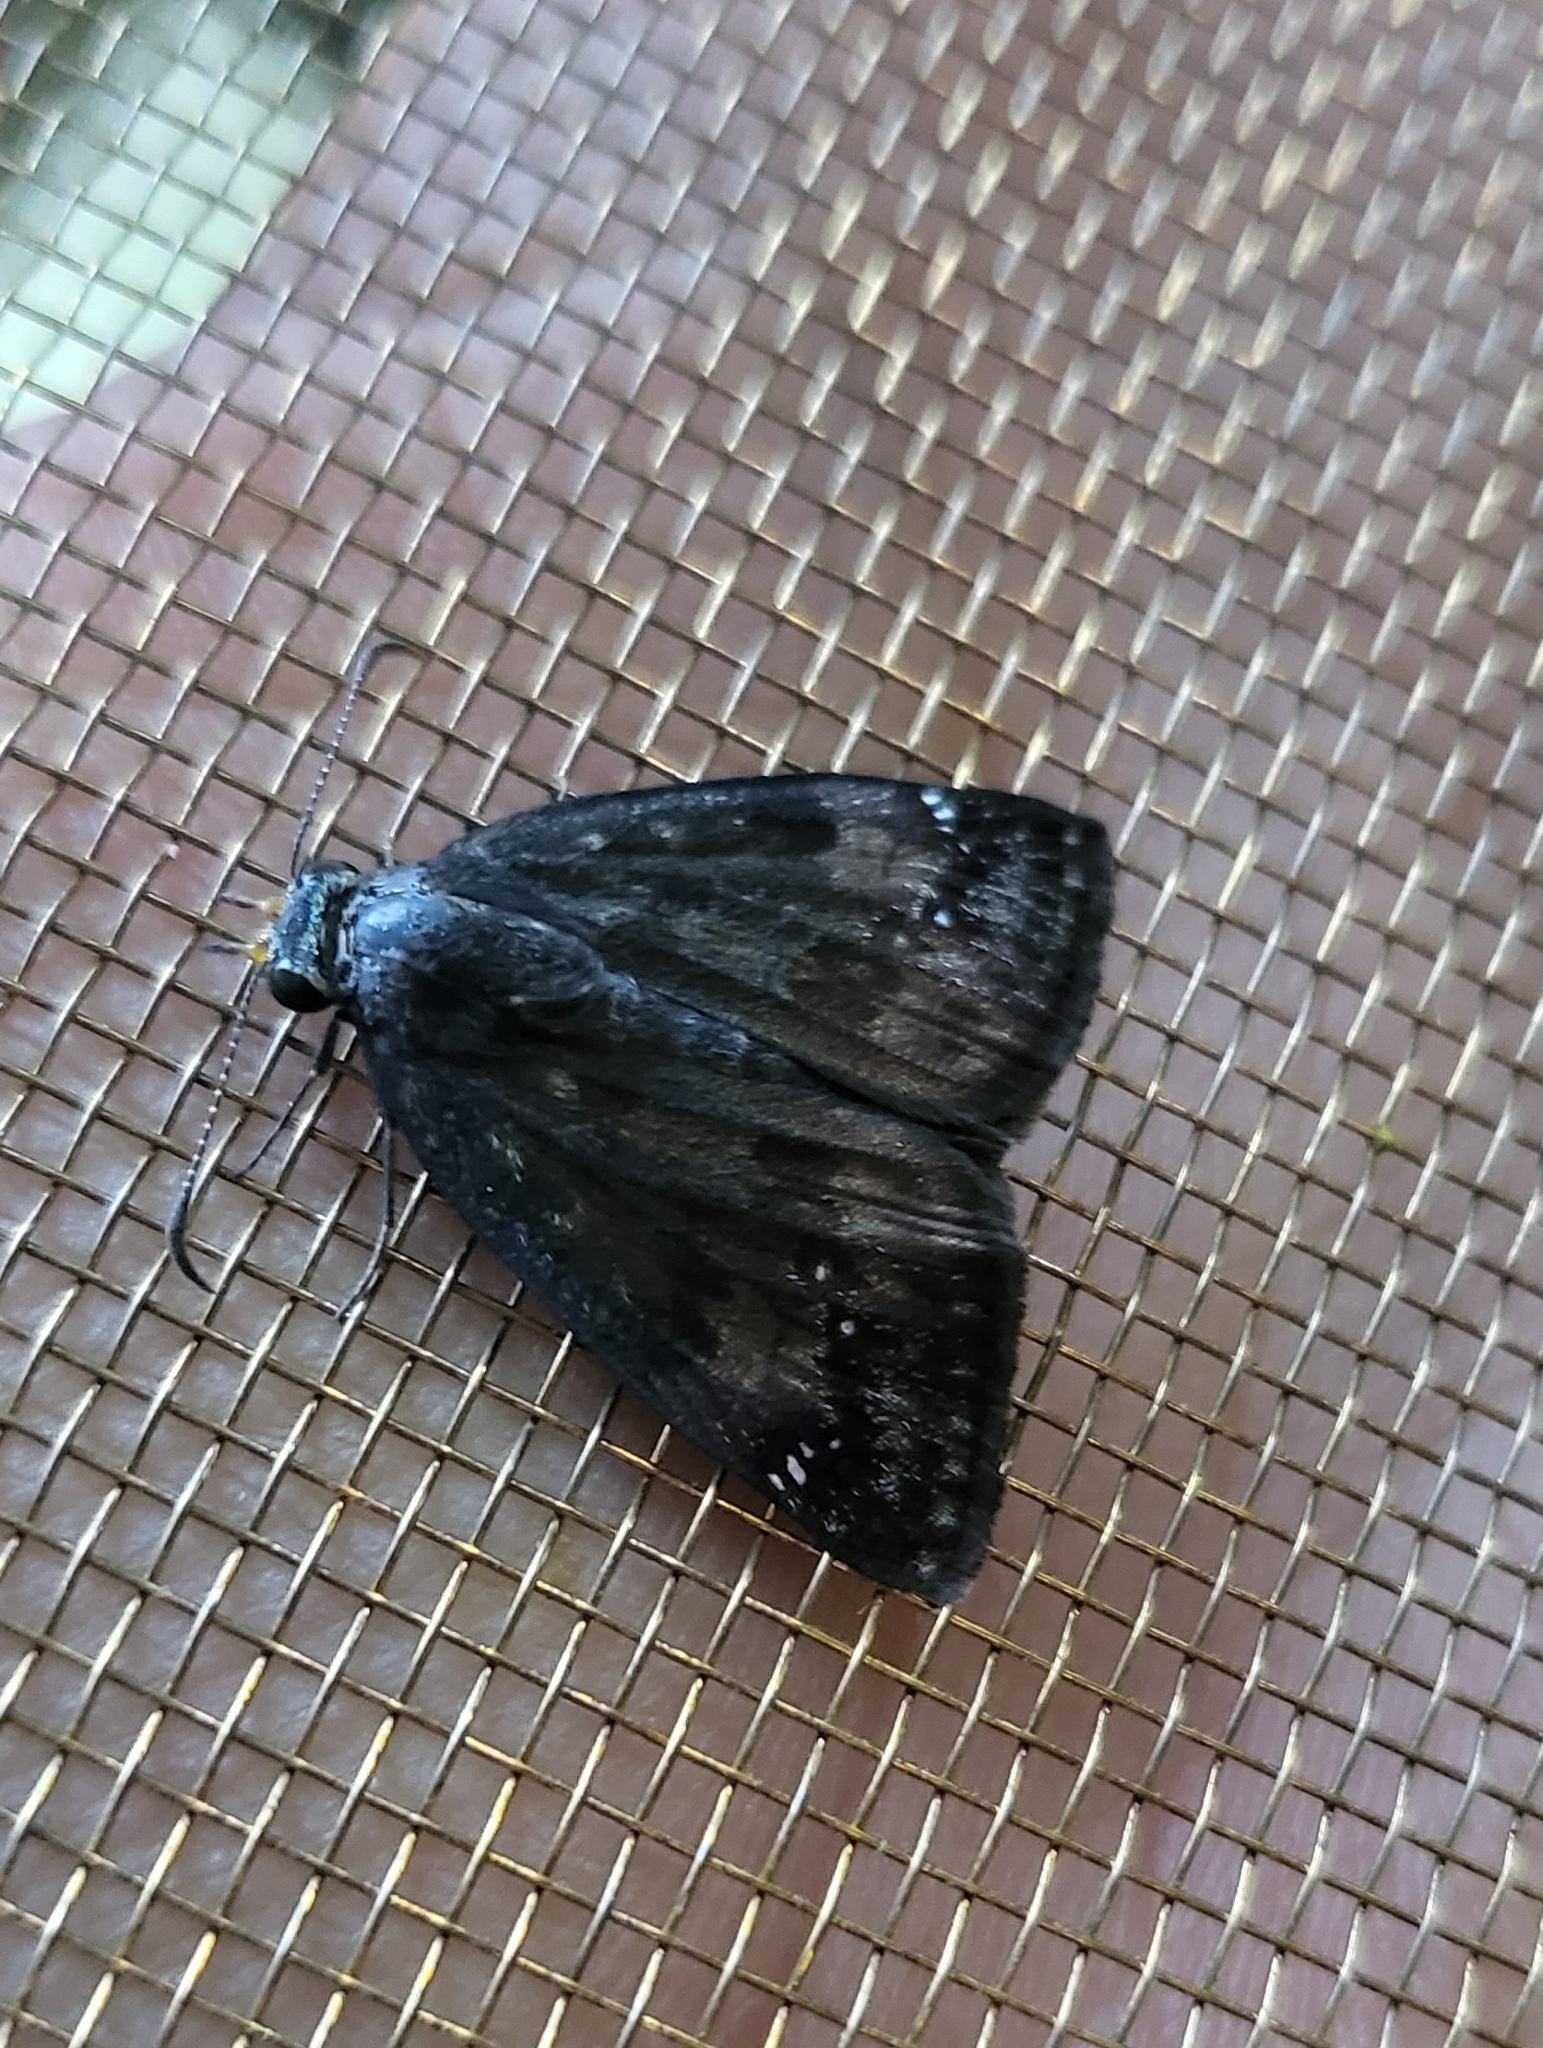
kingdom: Animalia
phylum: Arthropoda
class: Insecta
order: Lepidoptera
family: Hesperiidae
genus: Erynnis
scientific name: Erynnis baptisiae
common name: Wild indigo duskywing
